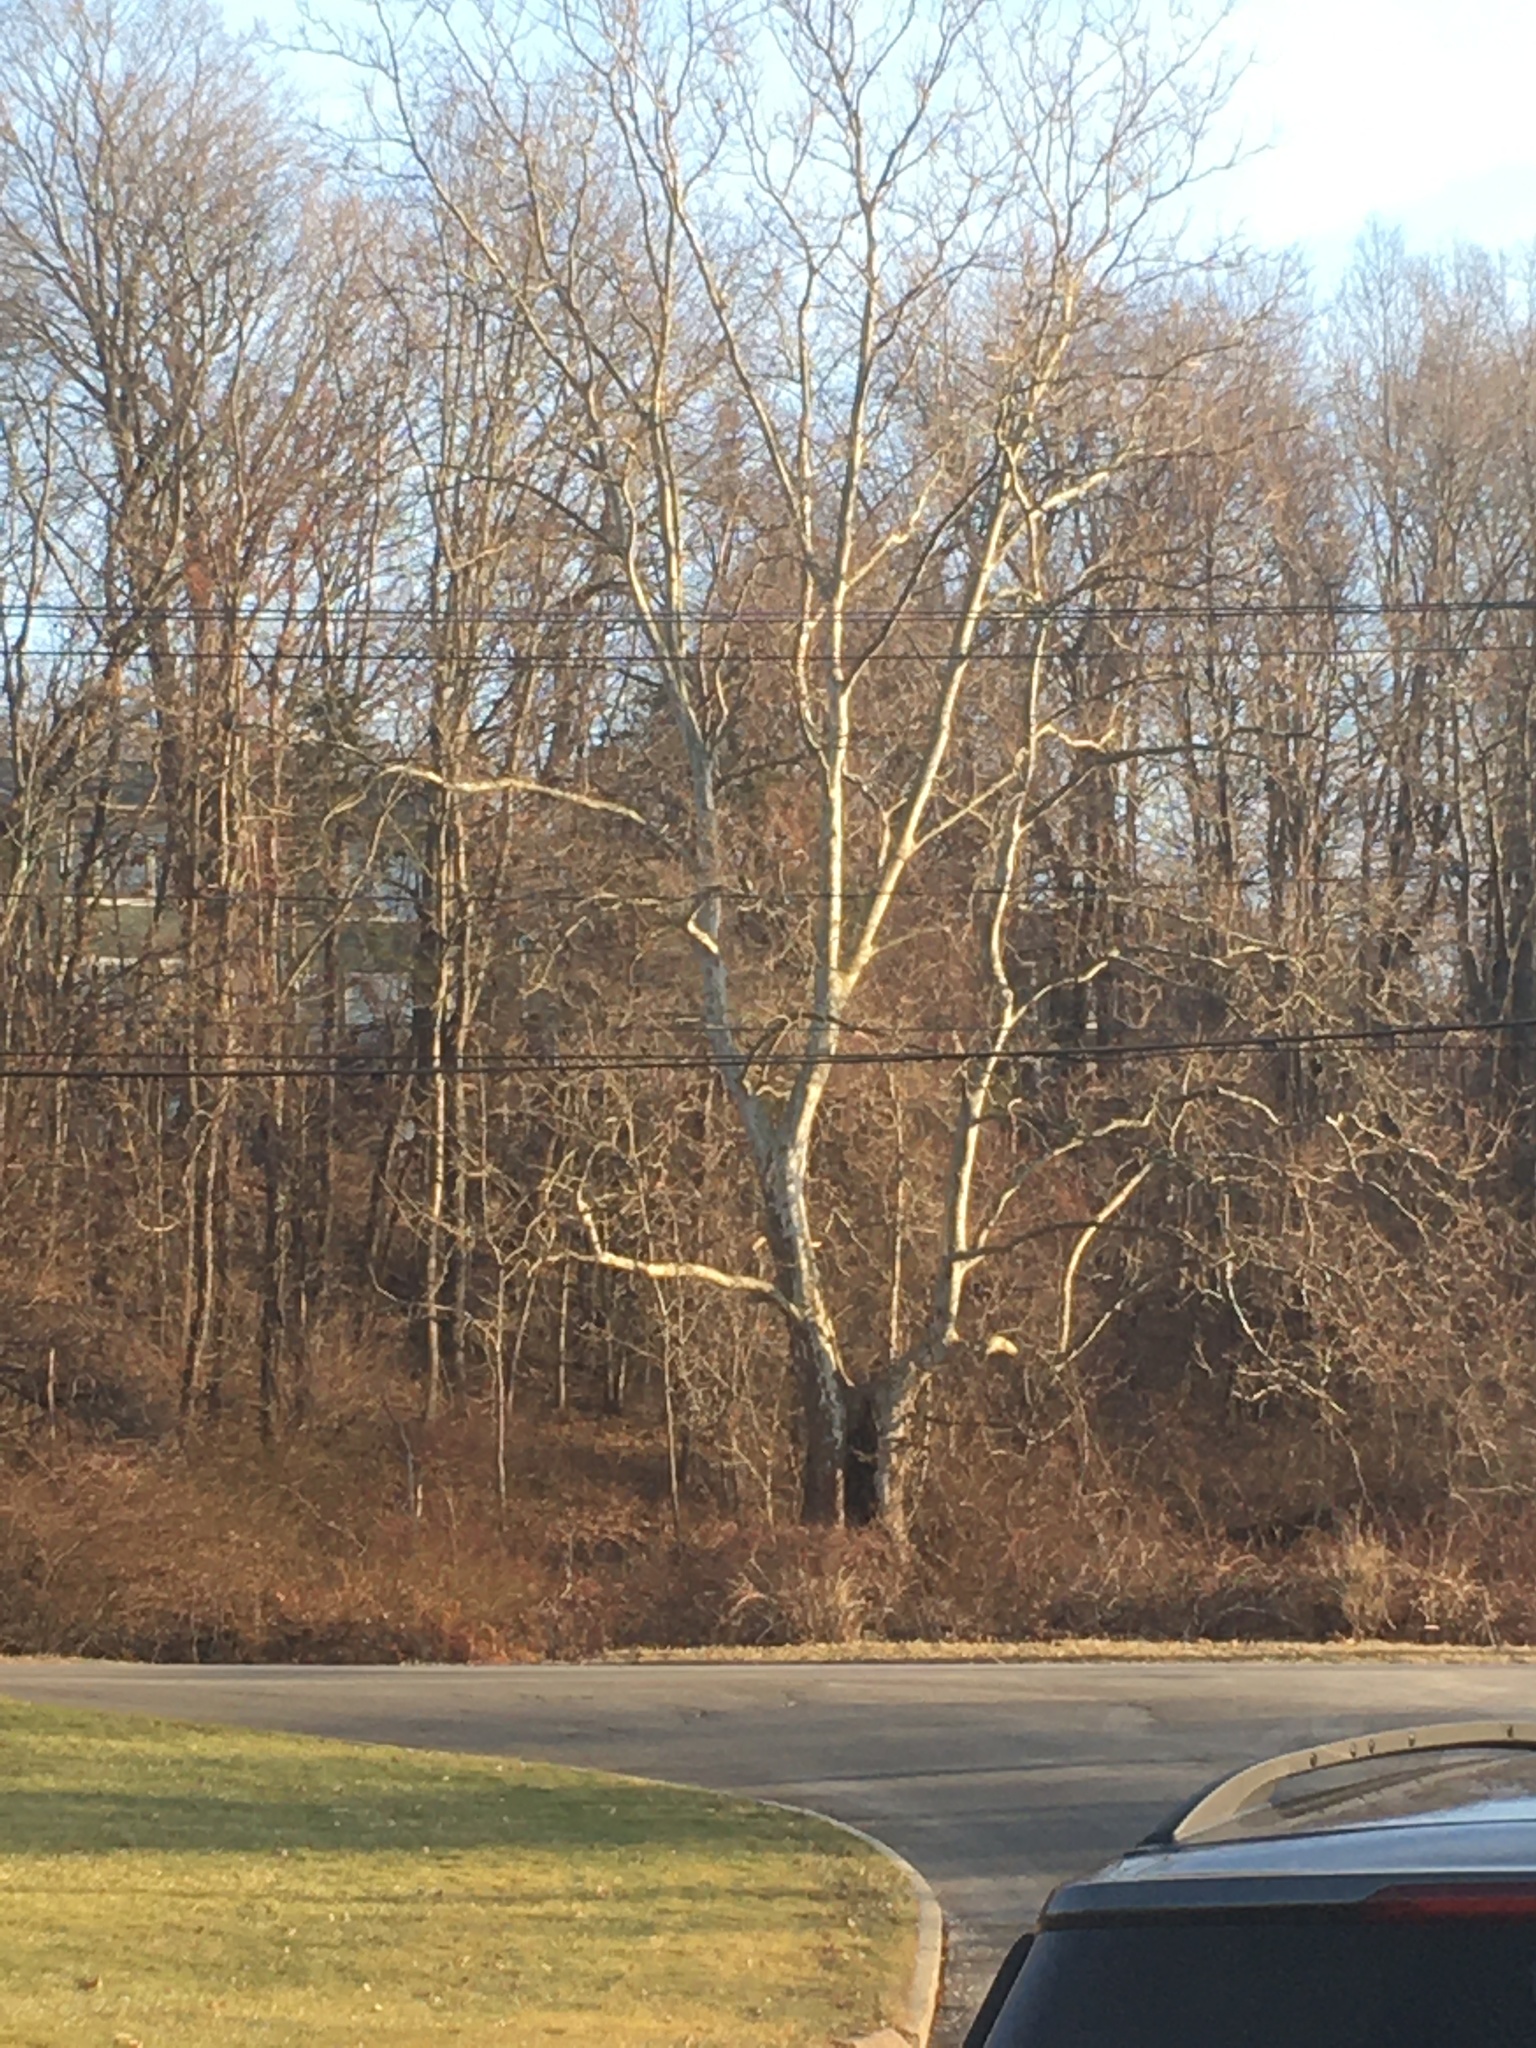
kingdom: Plantae
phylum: Tracheophyta
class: Magnoliopsida
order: Proteales
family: Platanaceae
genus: Platanus
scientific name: Platanus occidentalis
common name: American sycamore
